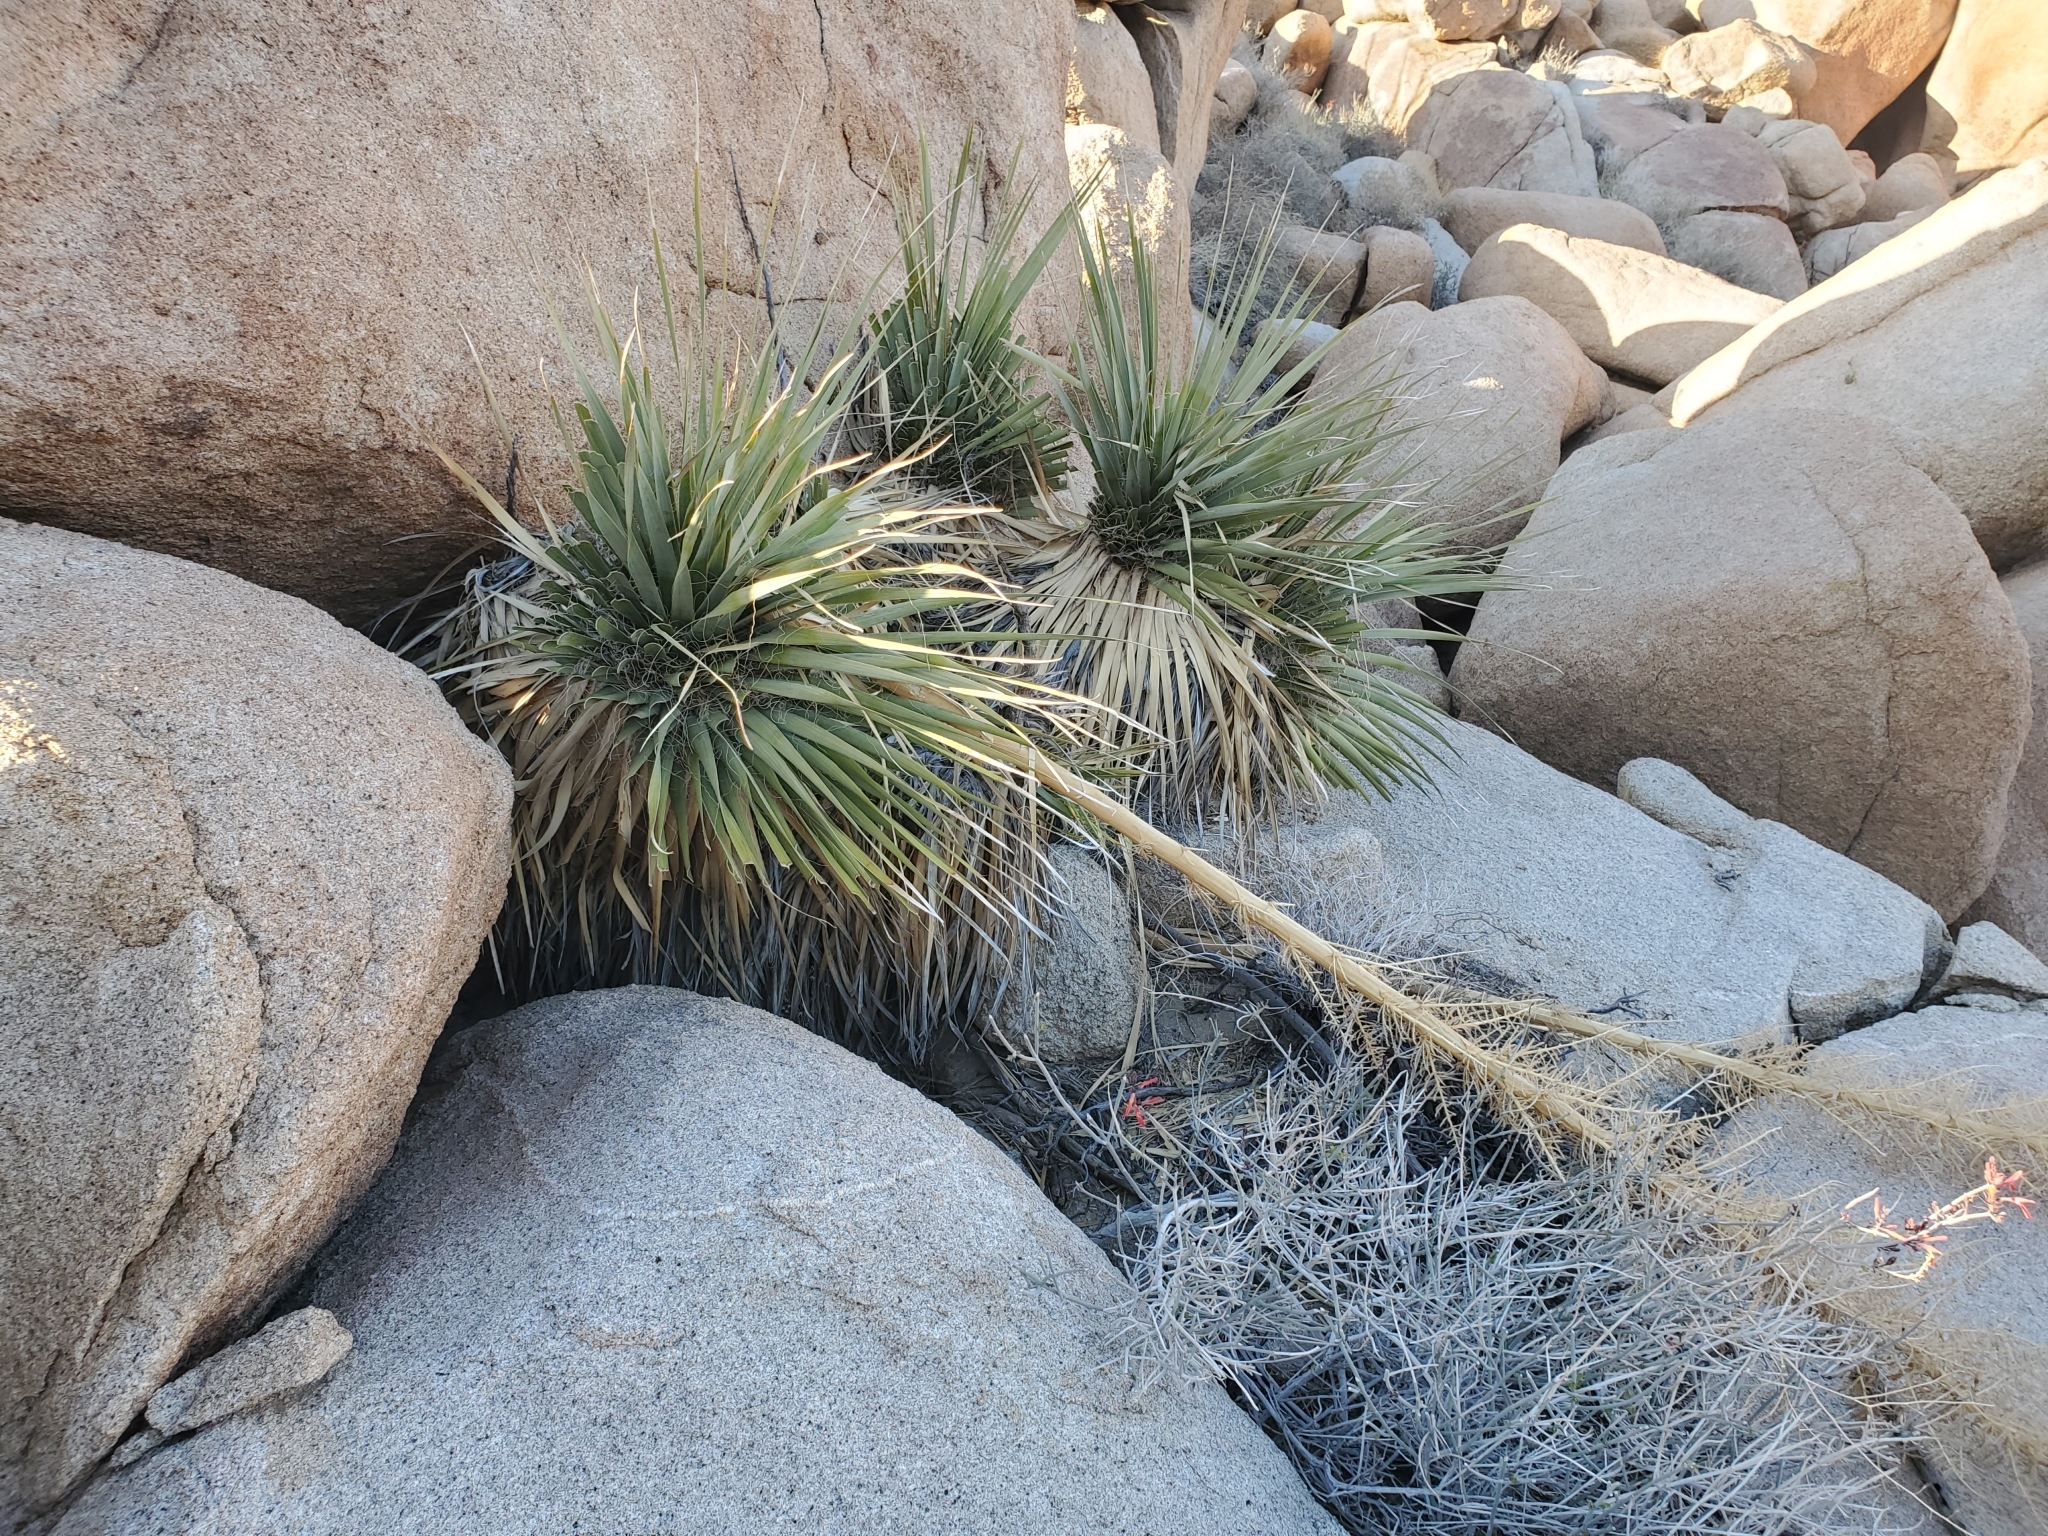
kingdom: Plantae
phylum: Tracheophyta
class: Liliopsida
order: Asparagales
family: Asparagaceae
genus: Nolina
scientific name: Nolina bigelovii
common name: Bigelow bear-grass
